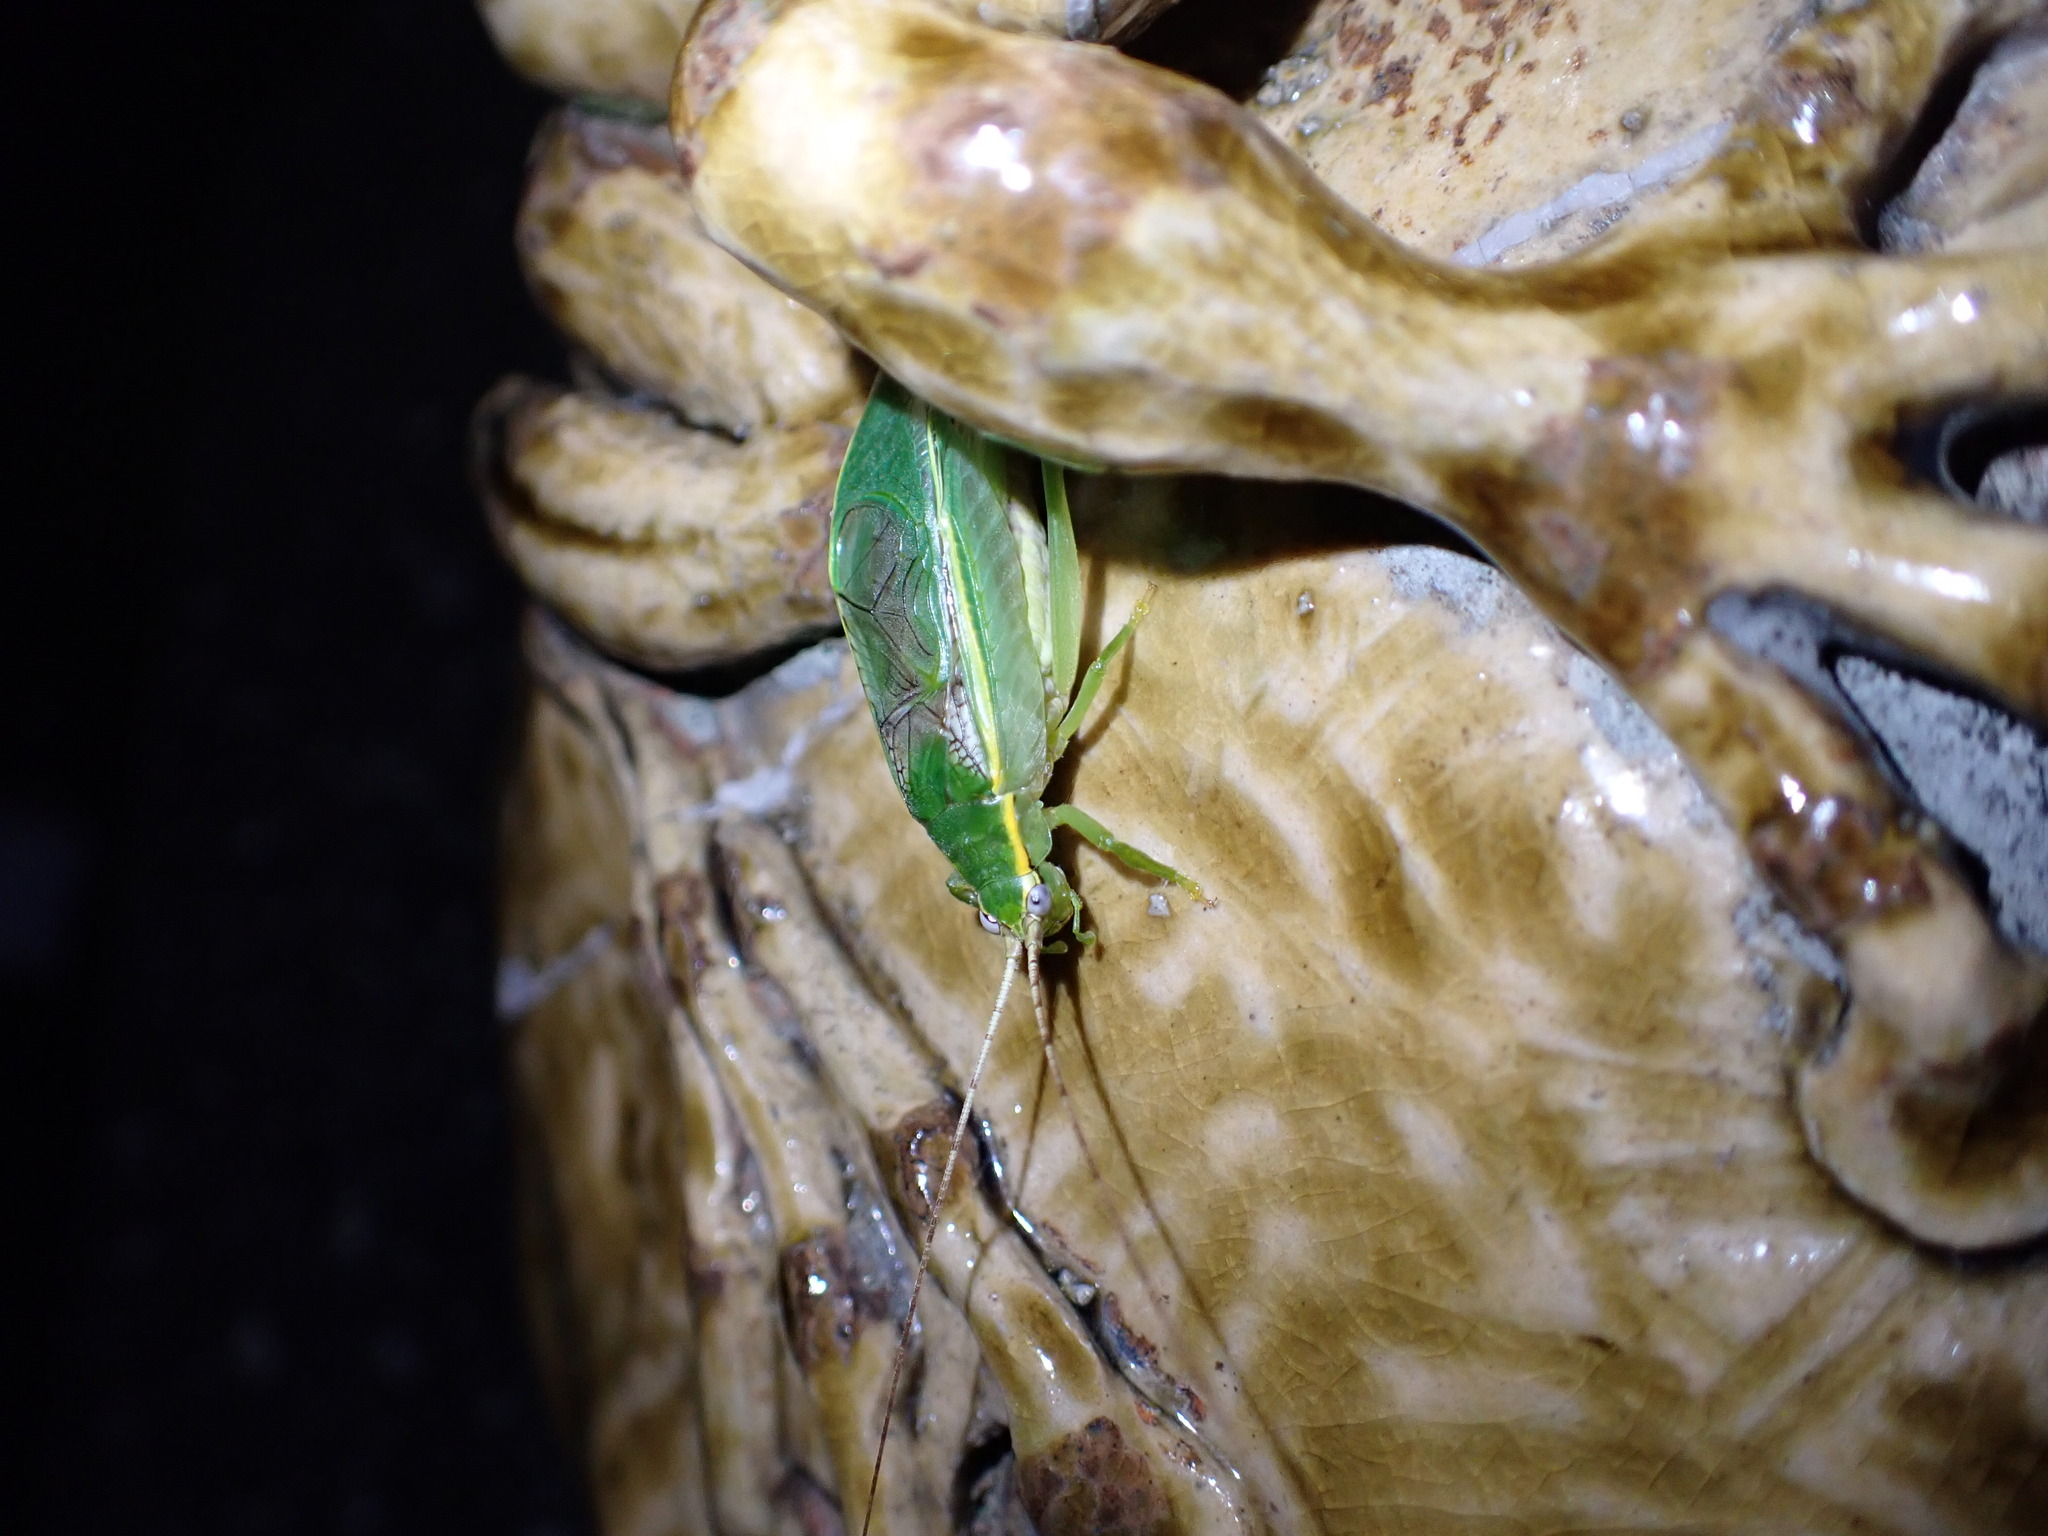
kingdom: Animalia
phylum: Arthropoda
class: Insecta
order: Orthoptera
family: Gryllidae
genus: Truljalia
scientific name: Truljalia hibinonis
